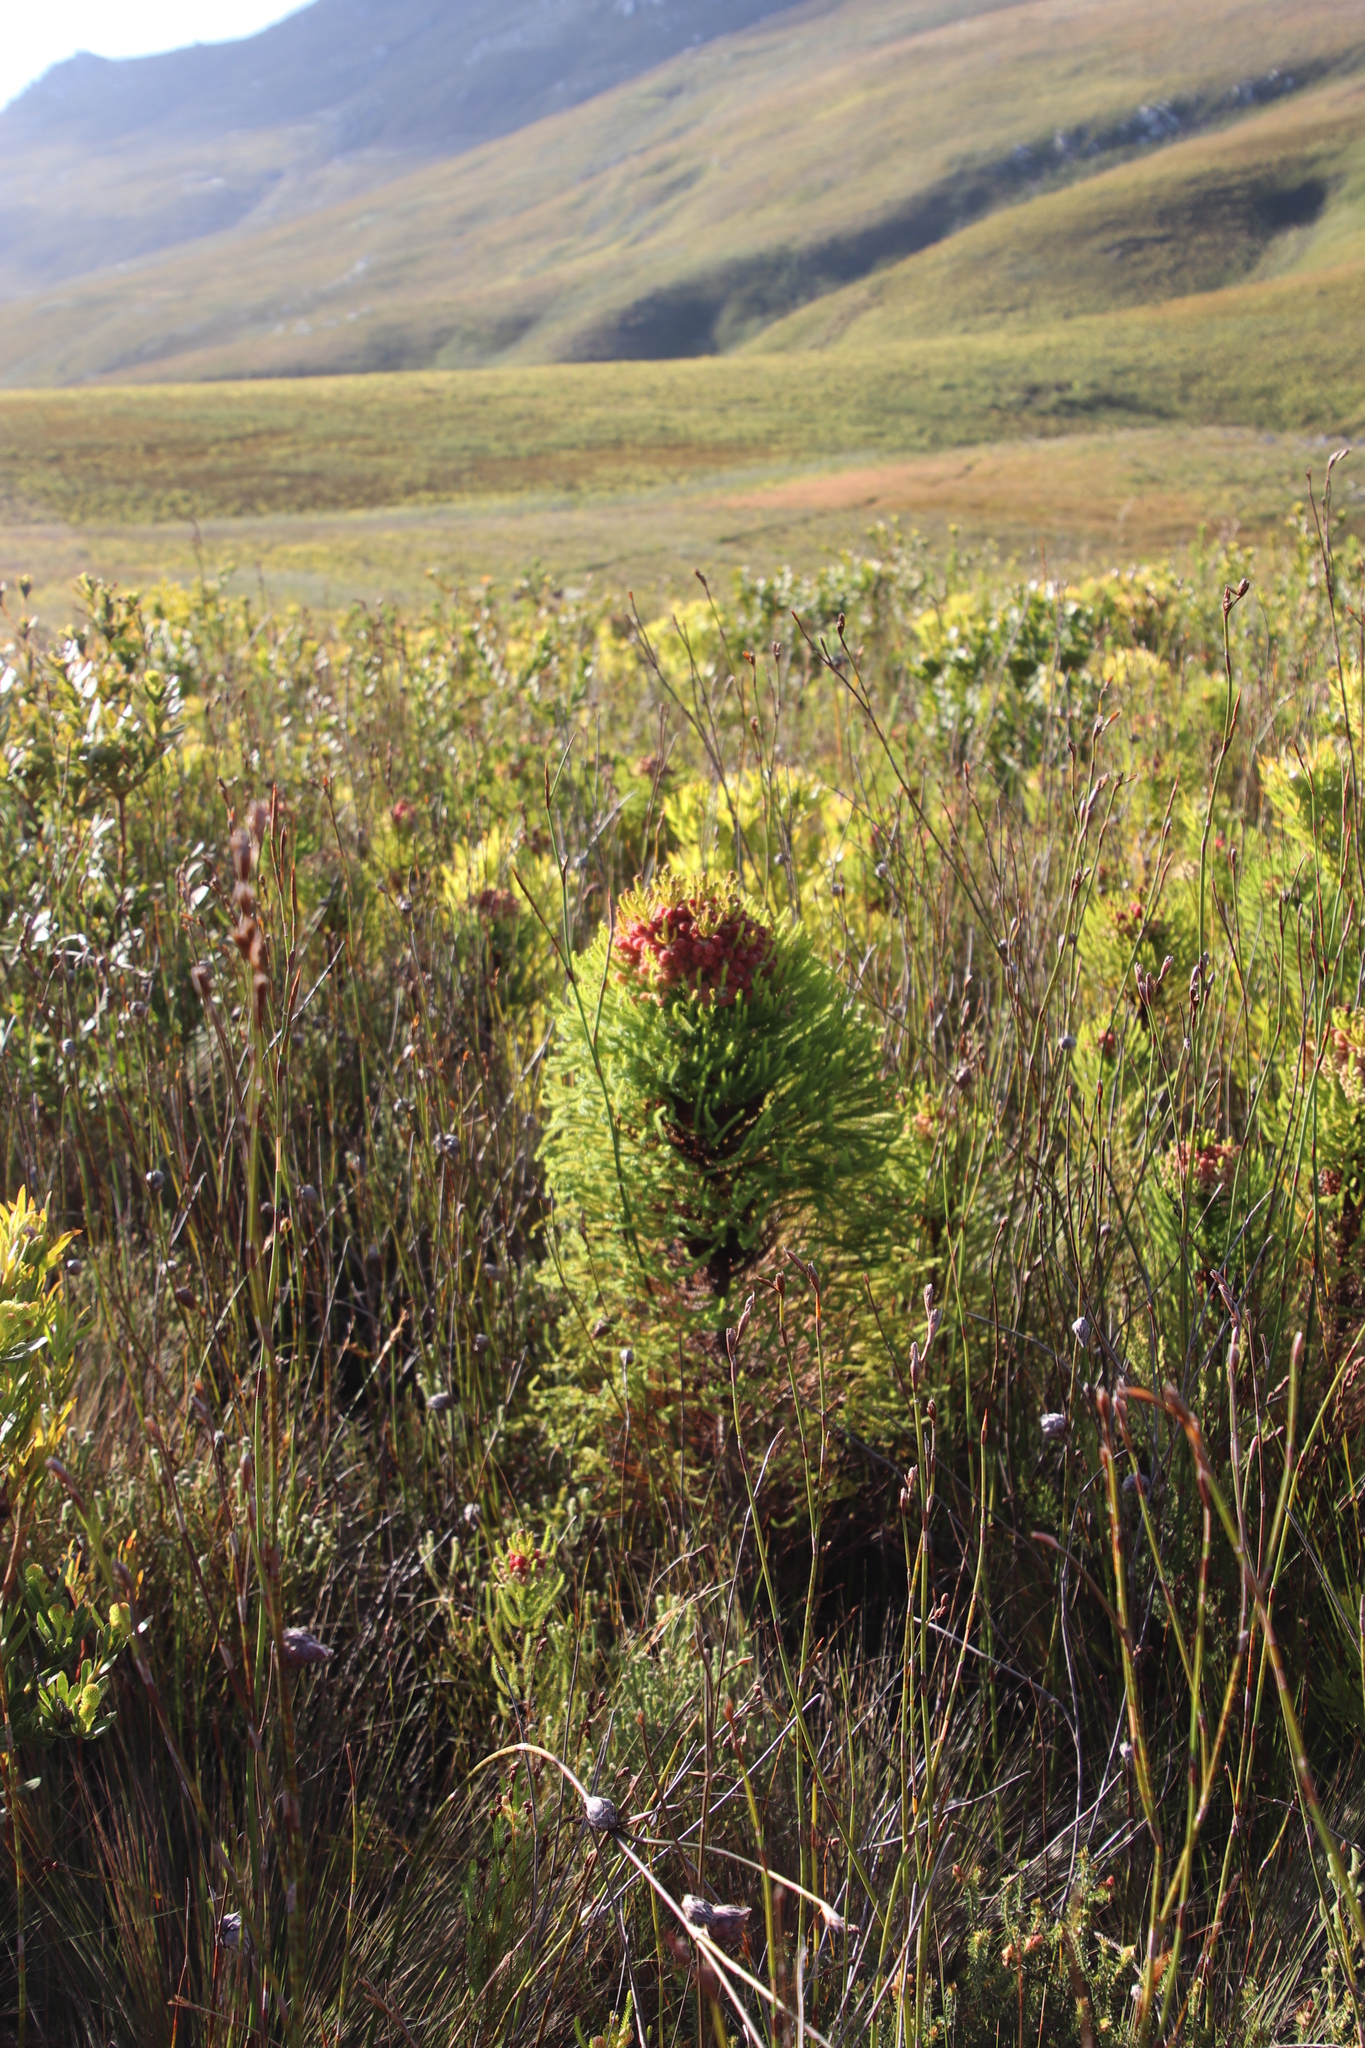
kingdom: Plantae
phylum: Tracheophyta
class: Magnoliopsida
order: Bruniales
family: Bruniaceae
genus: Berzelia
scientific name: Berzelia alopecurioides
